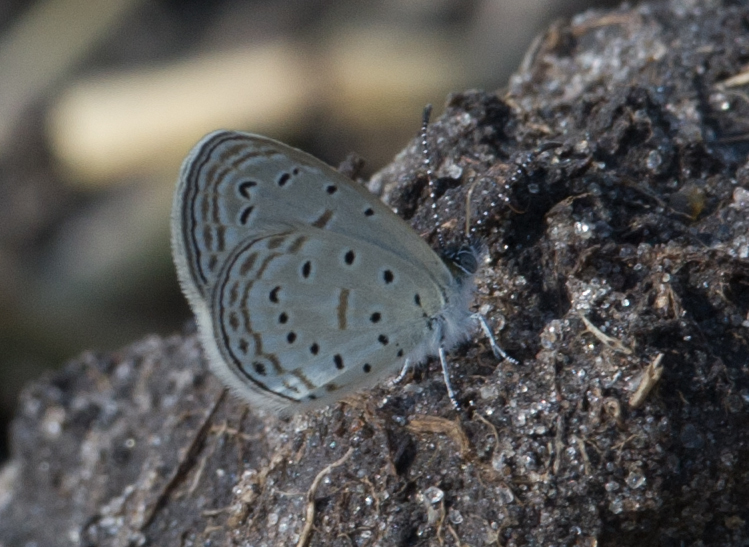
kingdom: Animalia
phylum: Arthropoda
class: Insecta
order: Lepidoptera
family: Lycaenidae
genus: Zizula
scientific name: Zizula hylax
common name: Gaika blue
